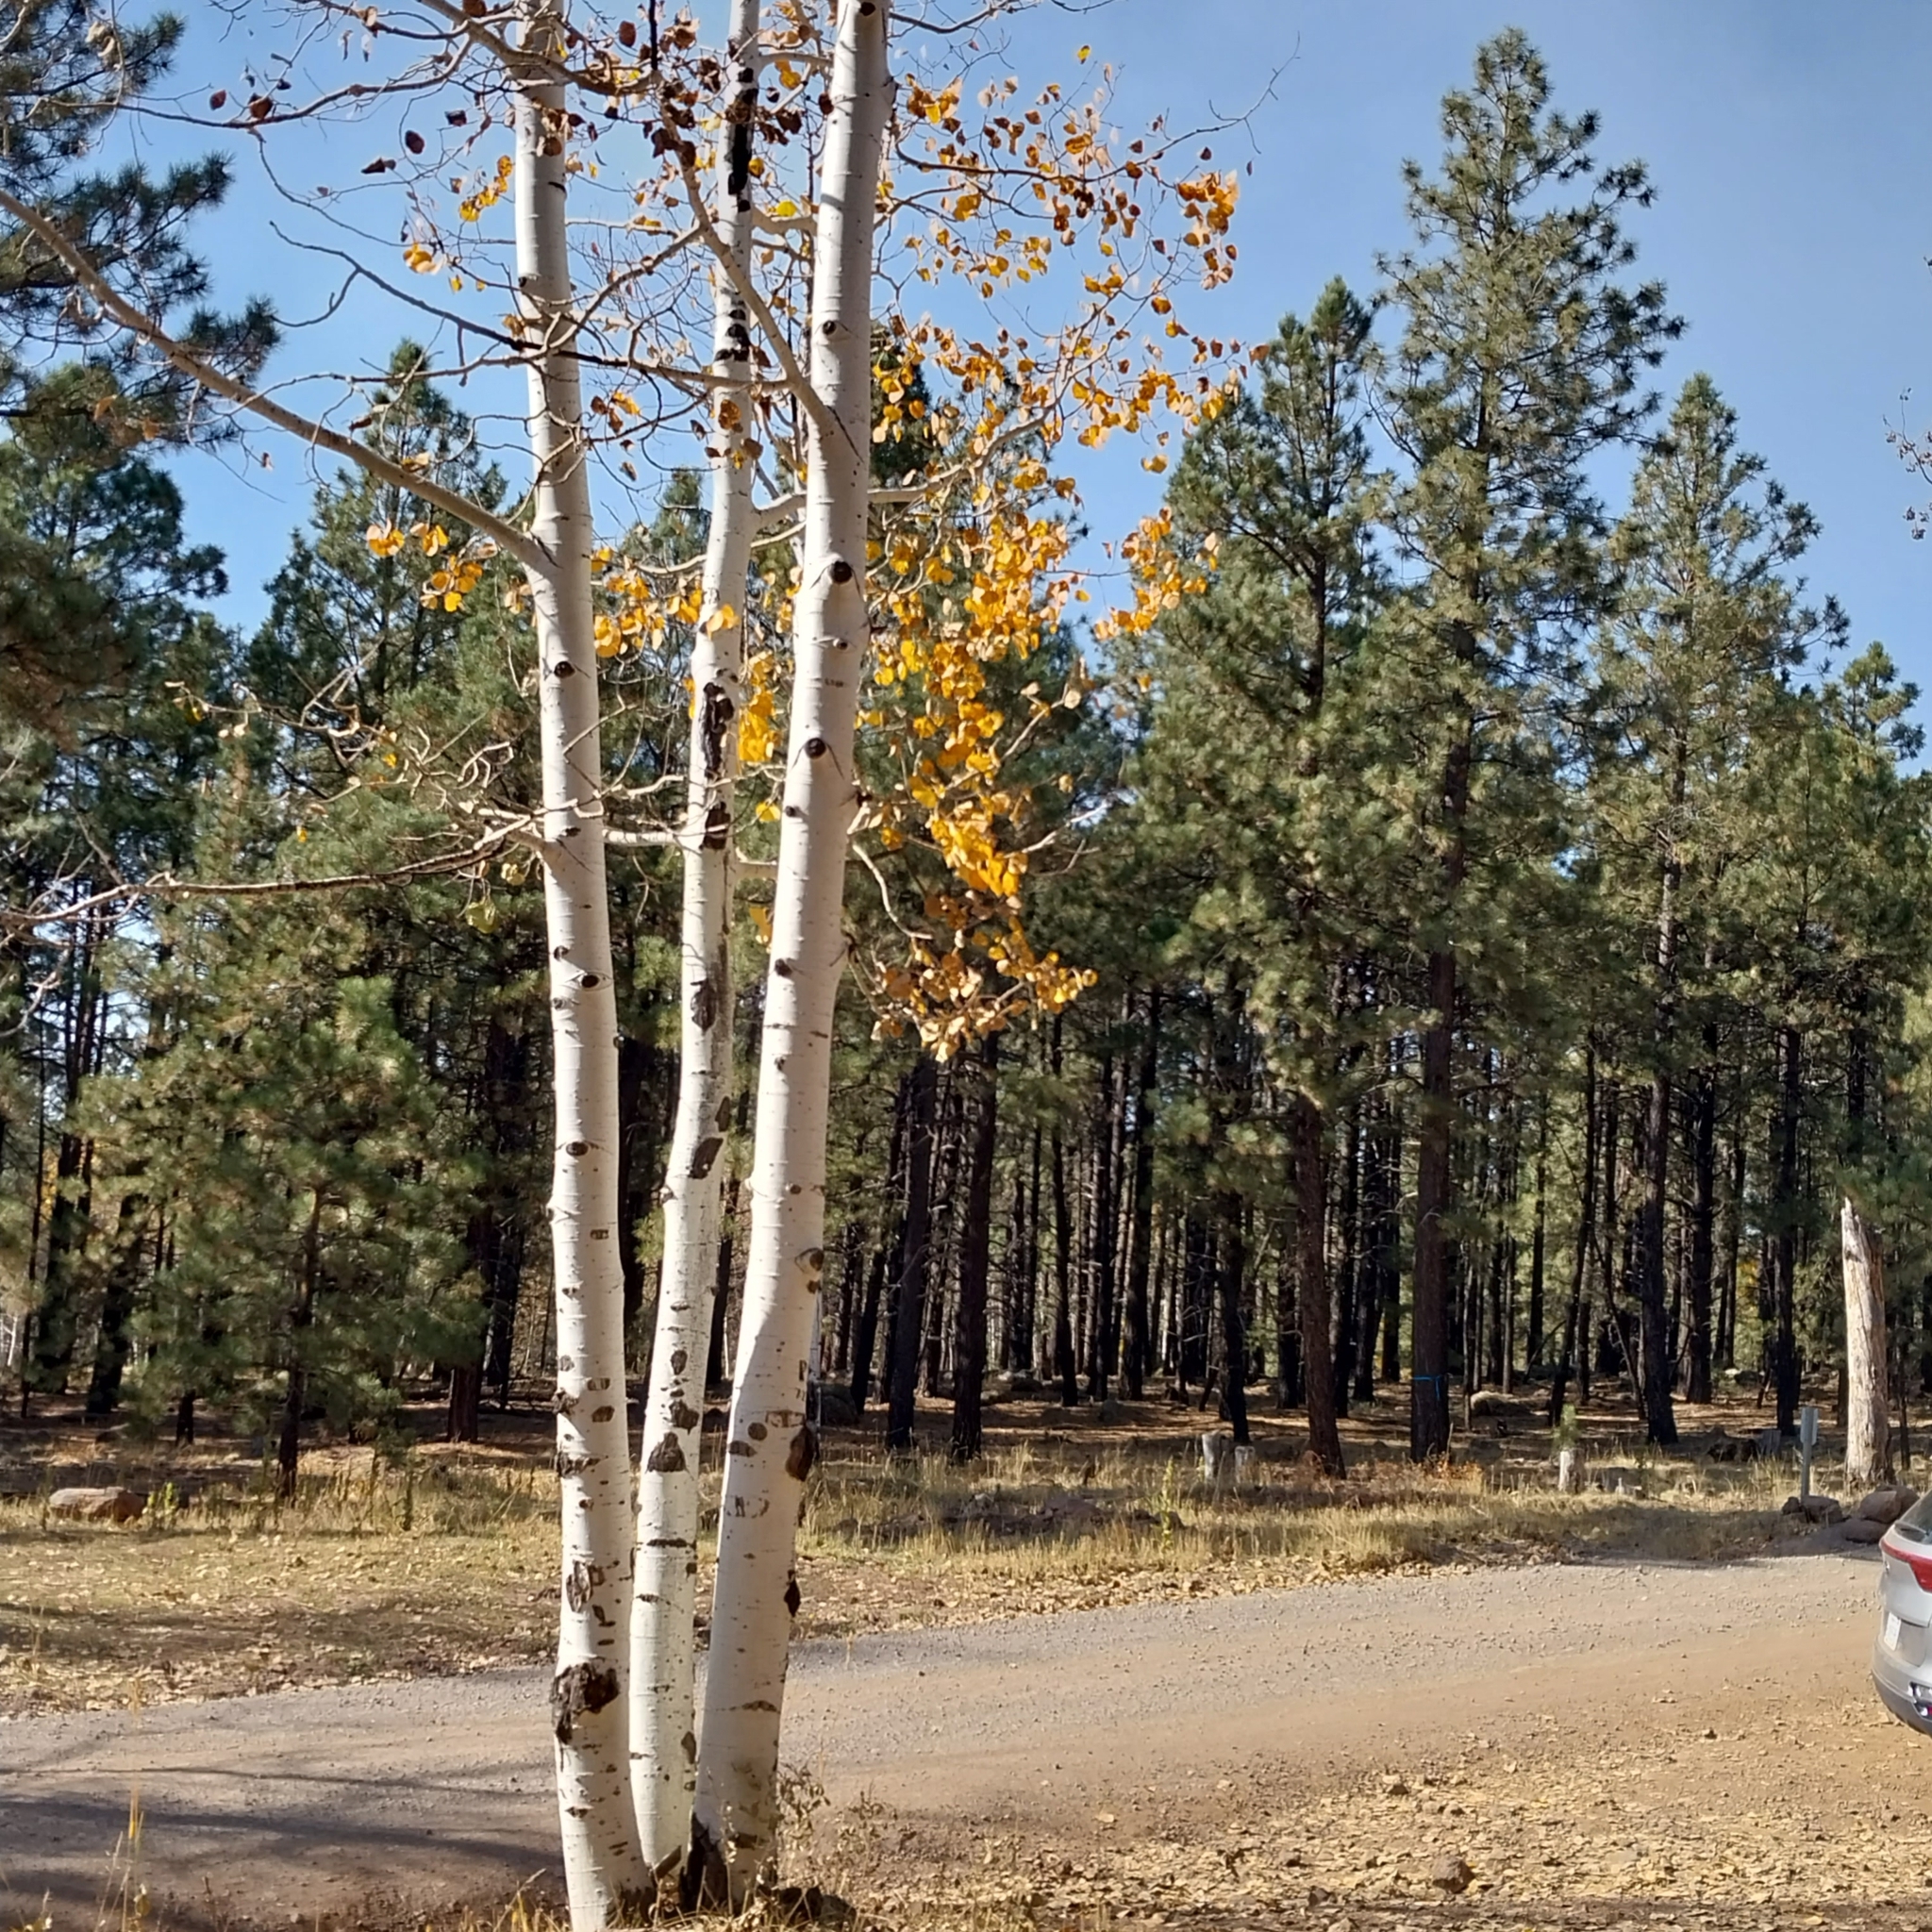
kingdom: Plantae
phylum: Tracheophyta
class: Magnoliopsida
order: Malpighiales
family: Salicaceae
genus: Populus
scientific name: Populus tremuloides
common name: Quaking aspen
